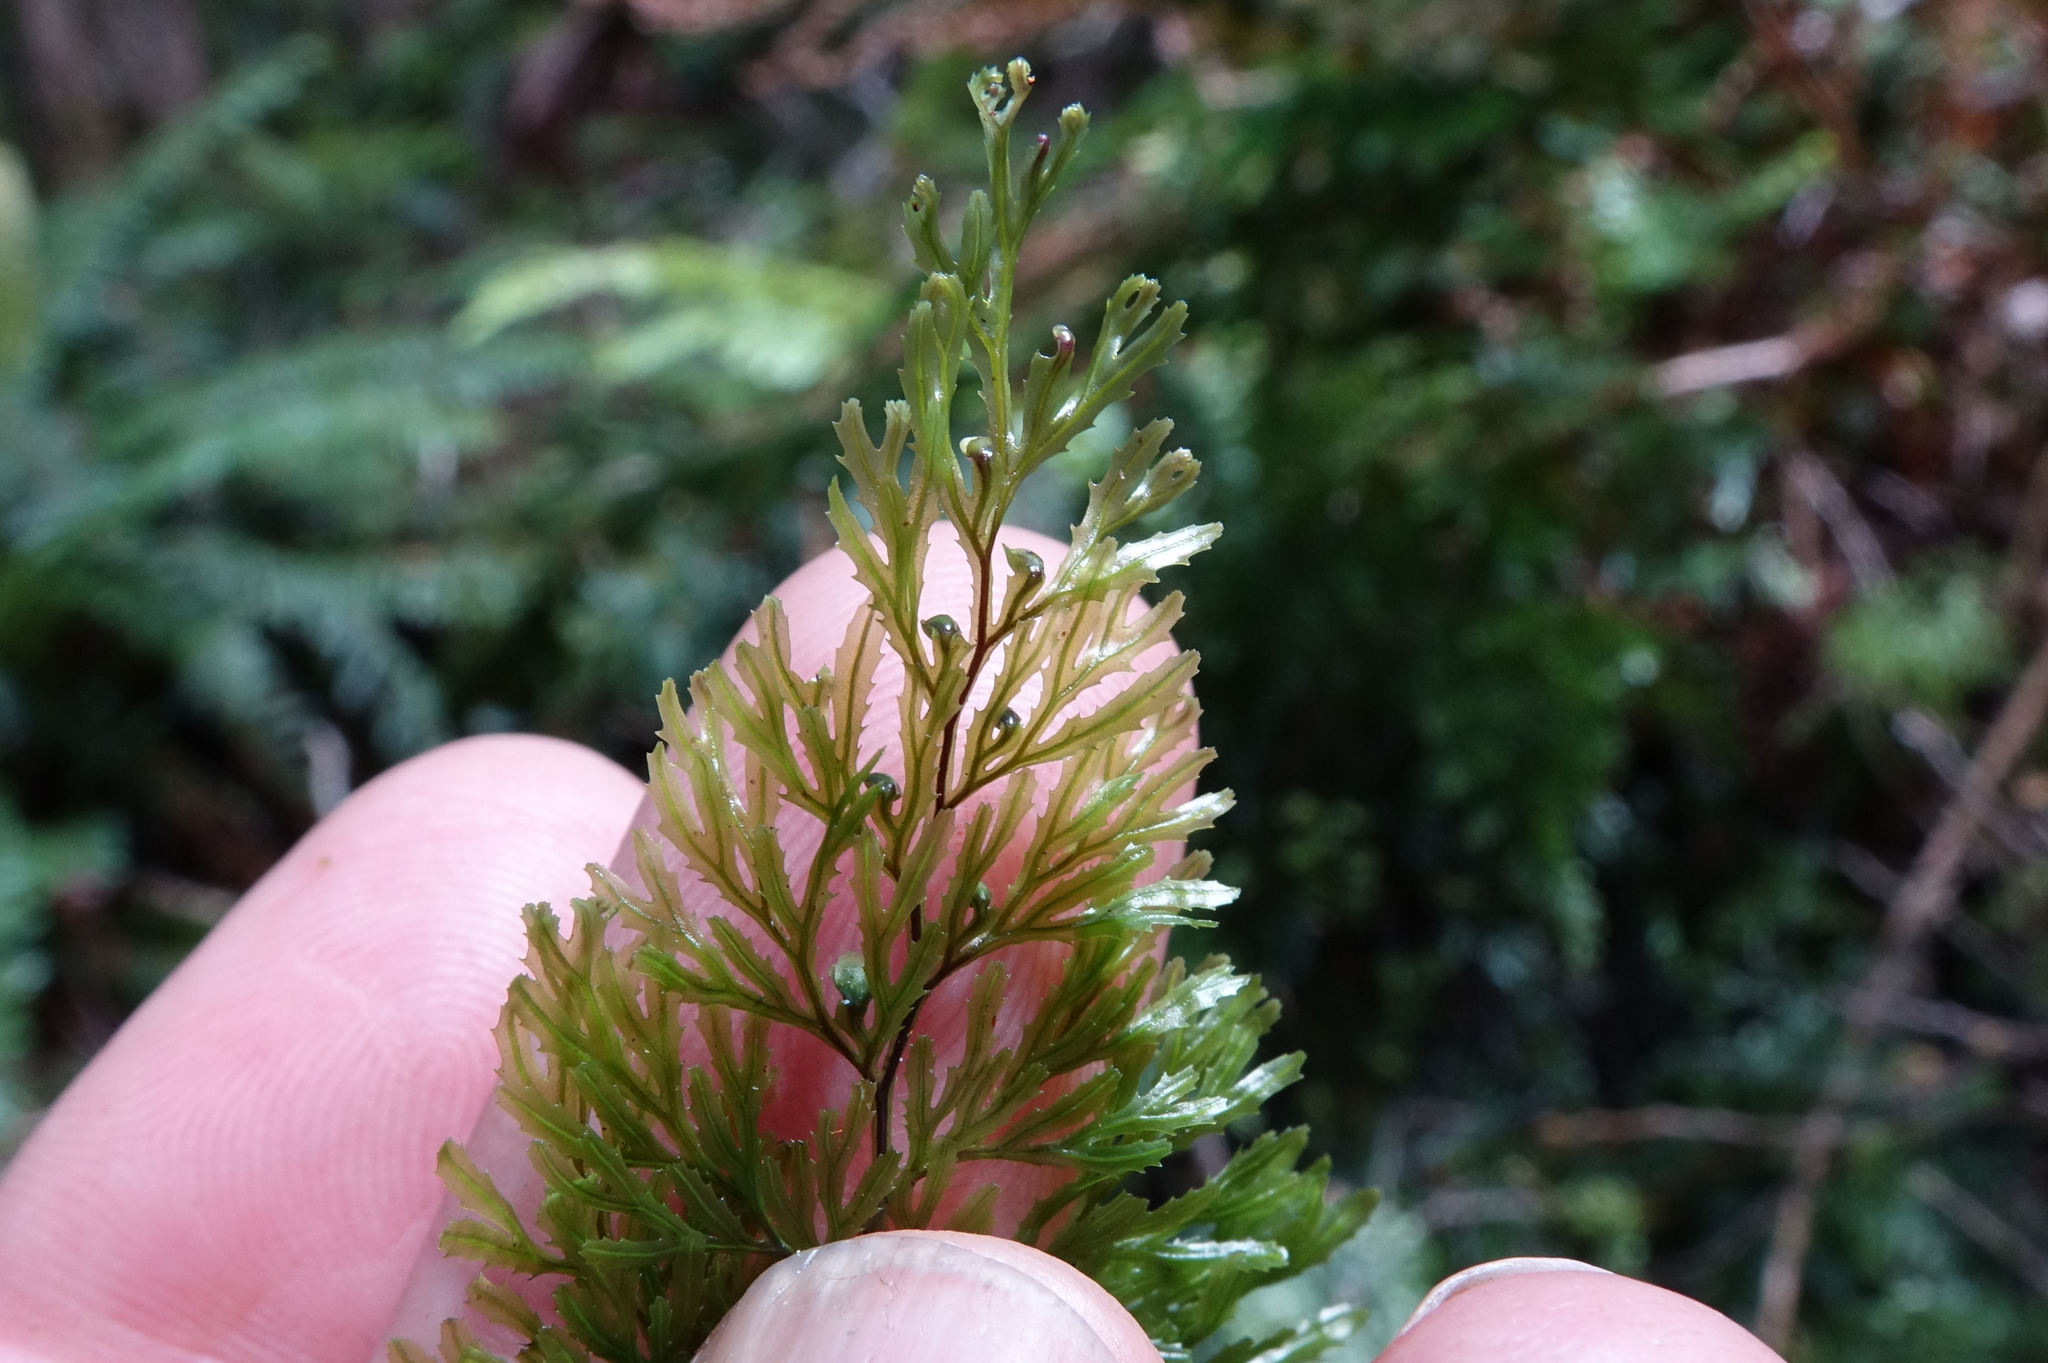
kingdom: Plantae
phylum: Tracheophyta
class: Polypodiopsida
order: Hymenophyllales
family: Hymenophyllaceae
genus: Hymenophyllum
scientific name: Hymenophyllum multifidum
